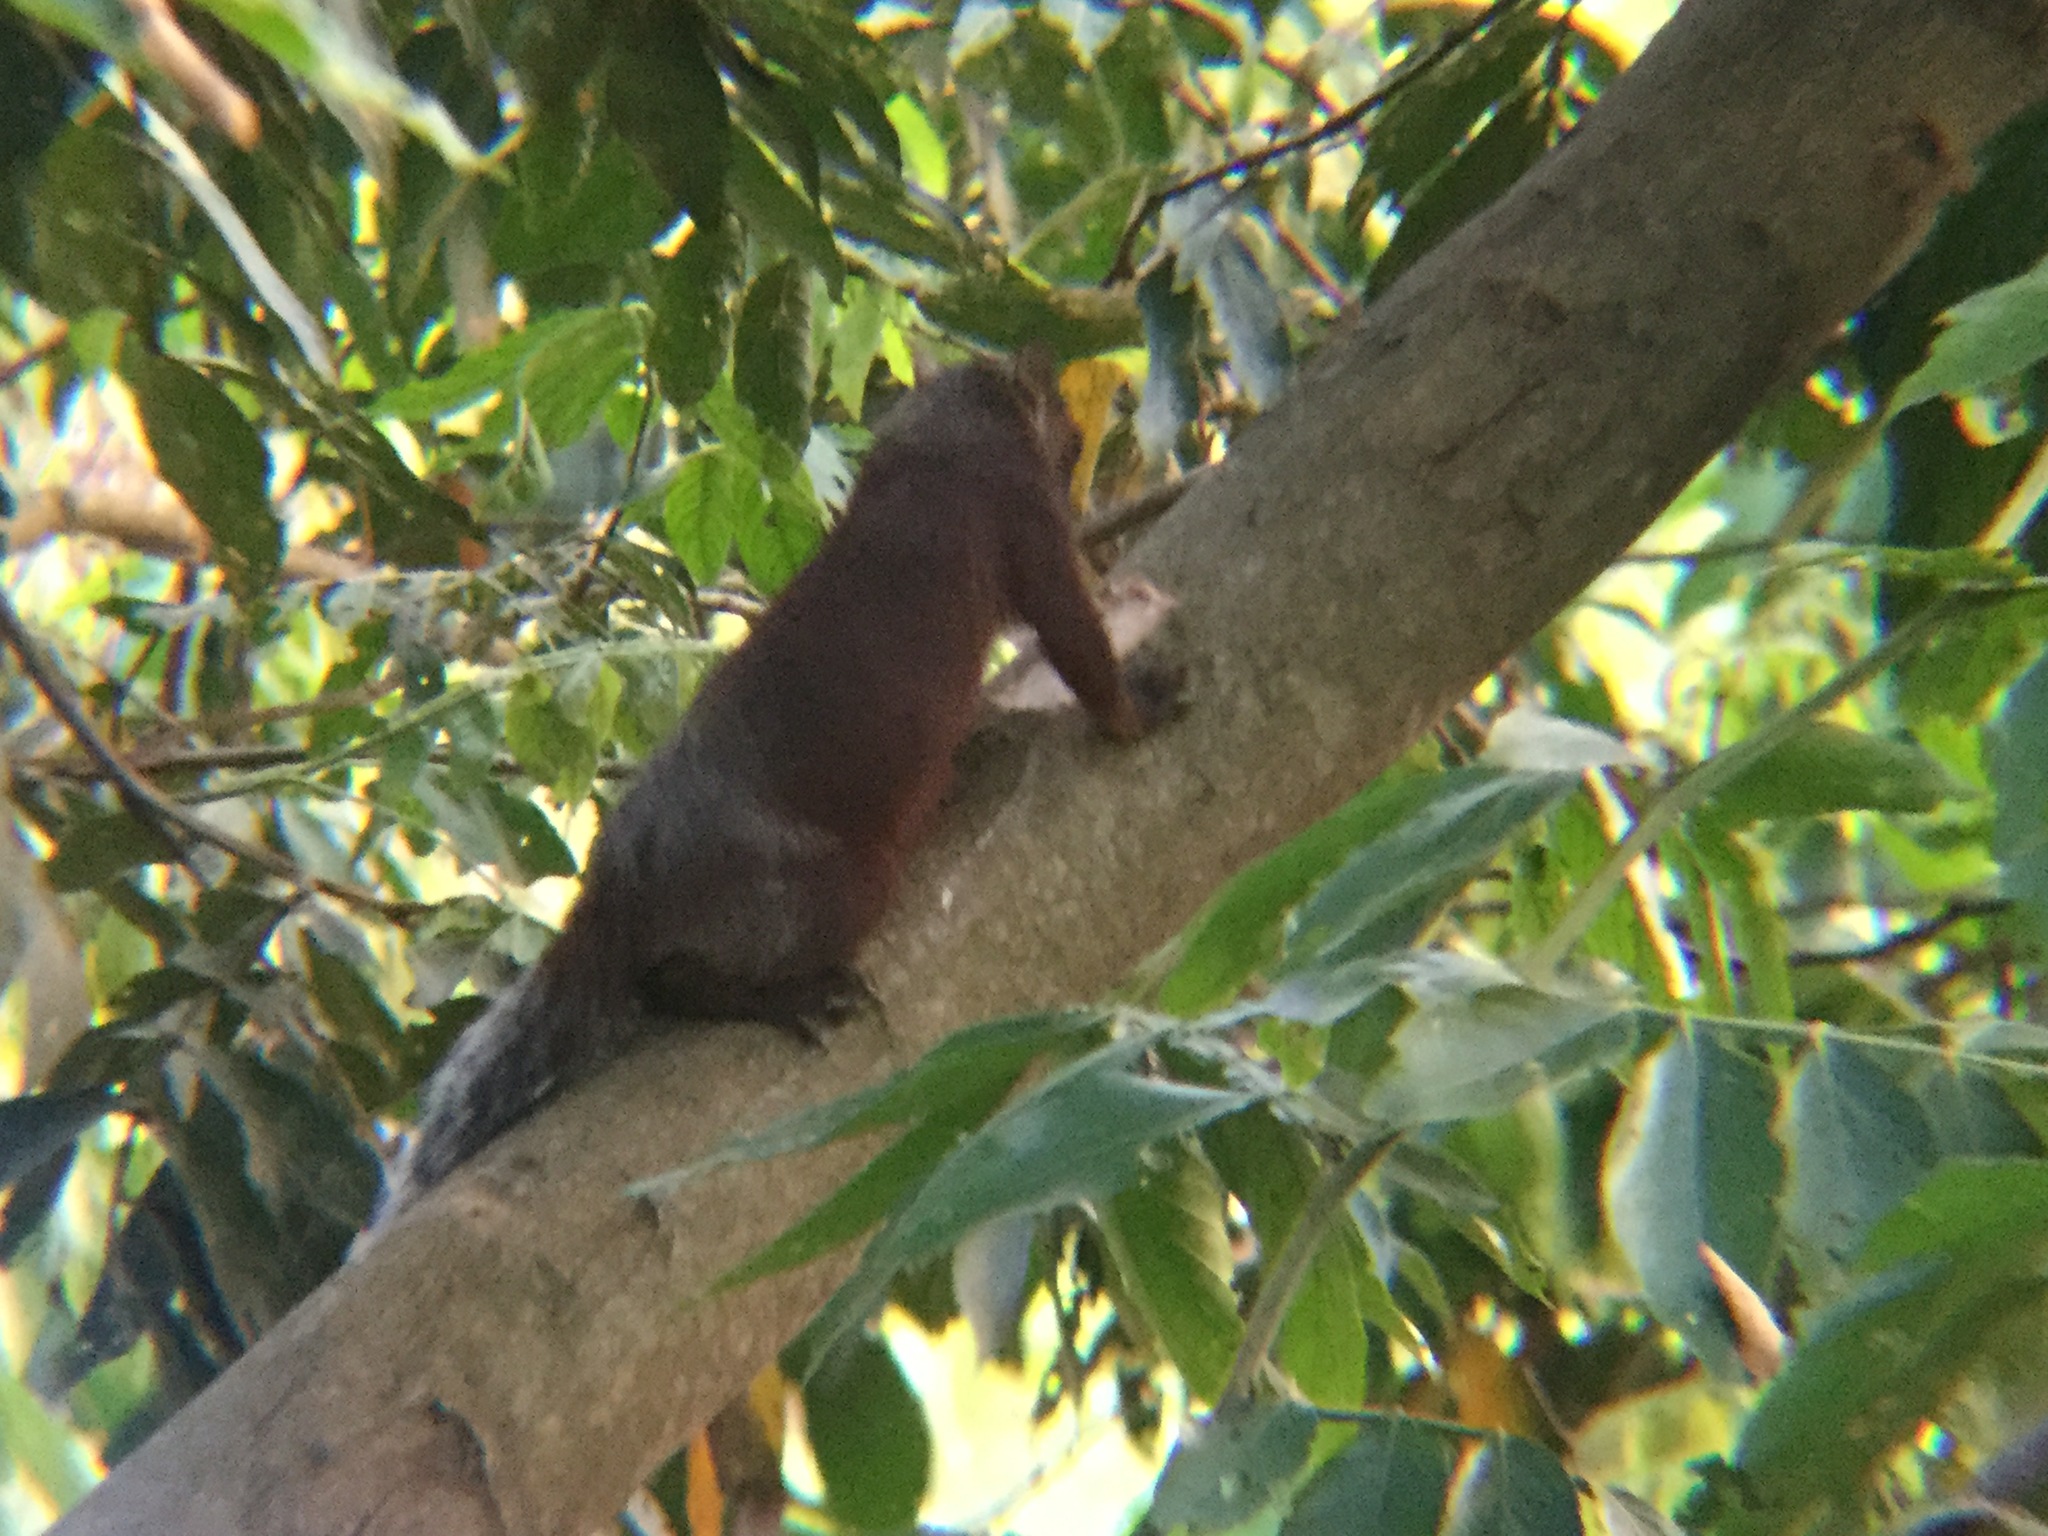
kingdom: Animalia
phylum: Chordata
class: Mammalia
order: Rodentia
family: Sciuridae
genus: Sciurus
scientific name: Sciurus aureogaster
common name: Red-bellied squirrel
